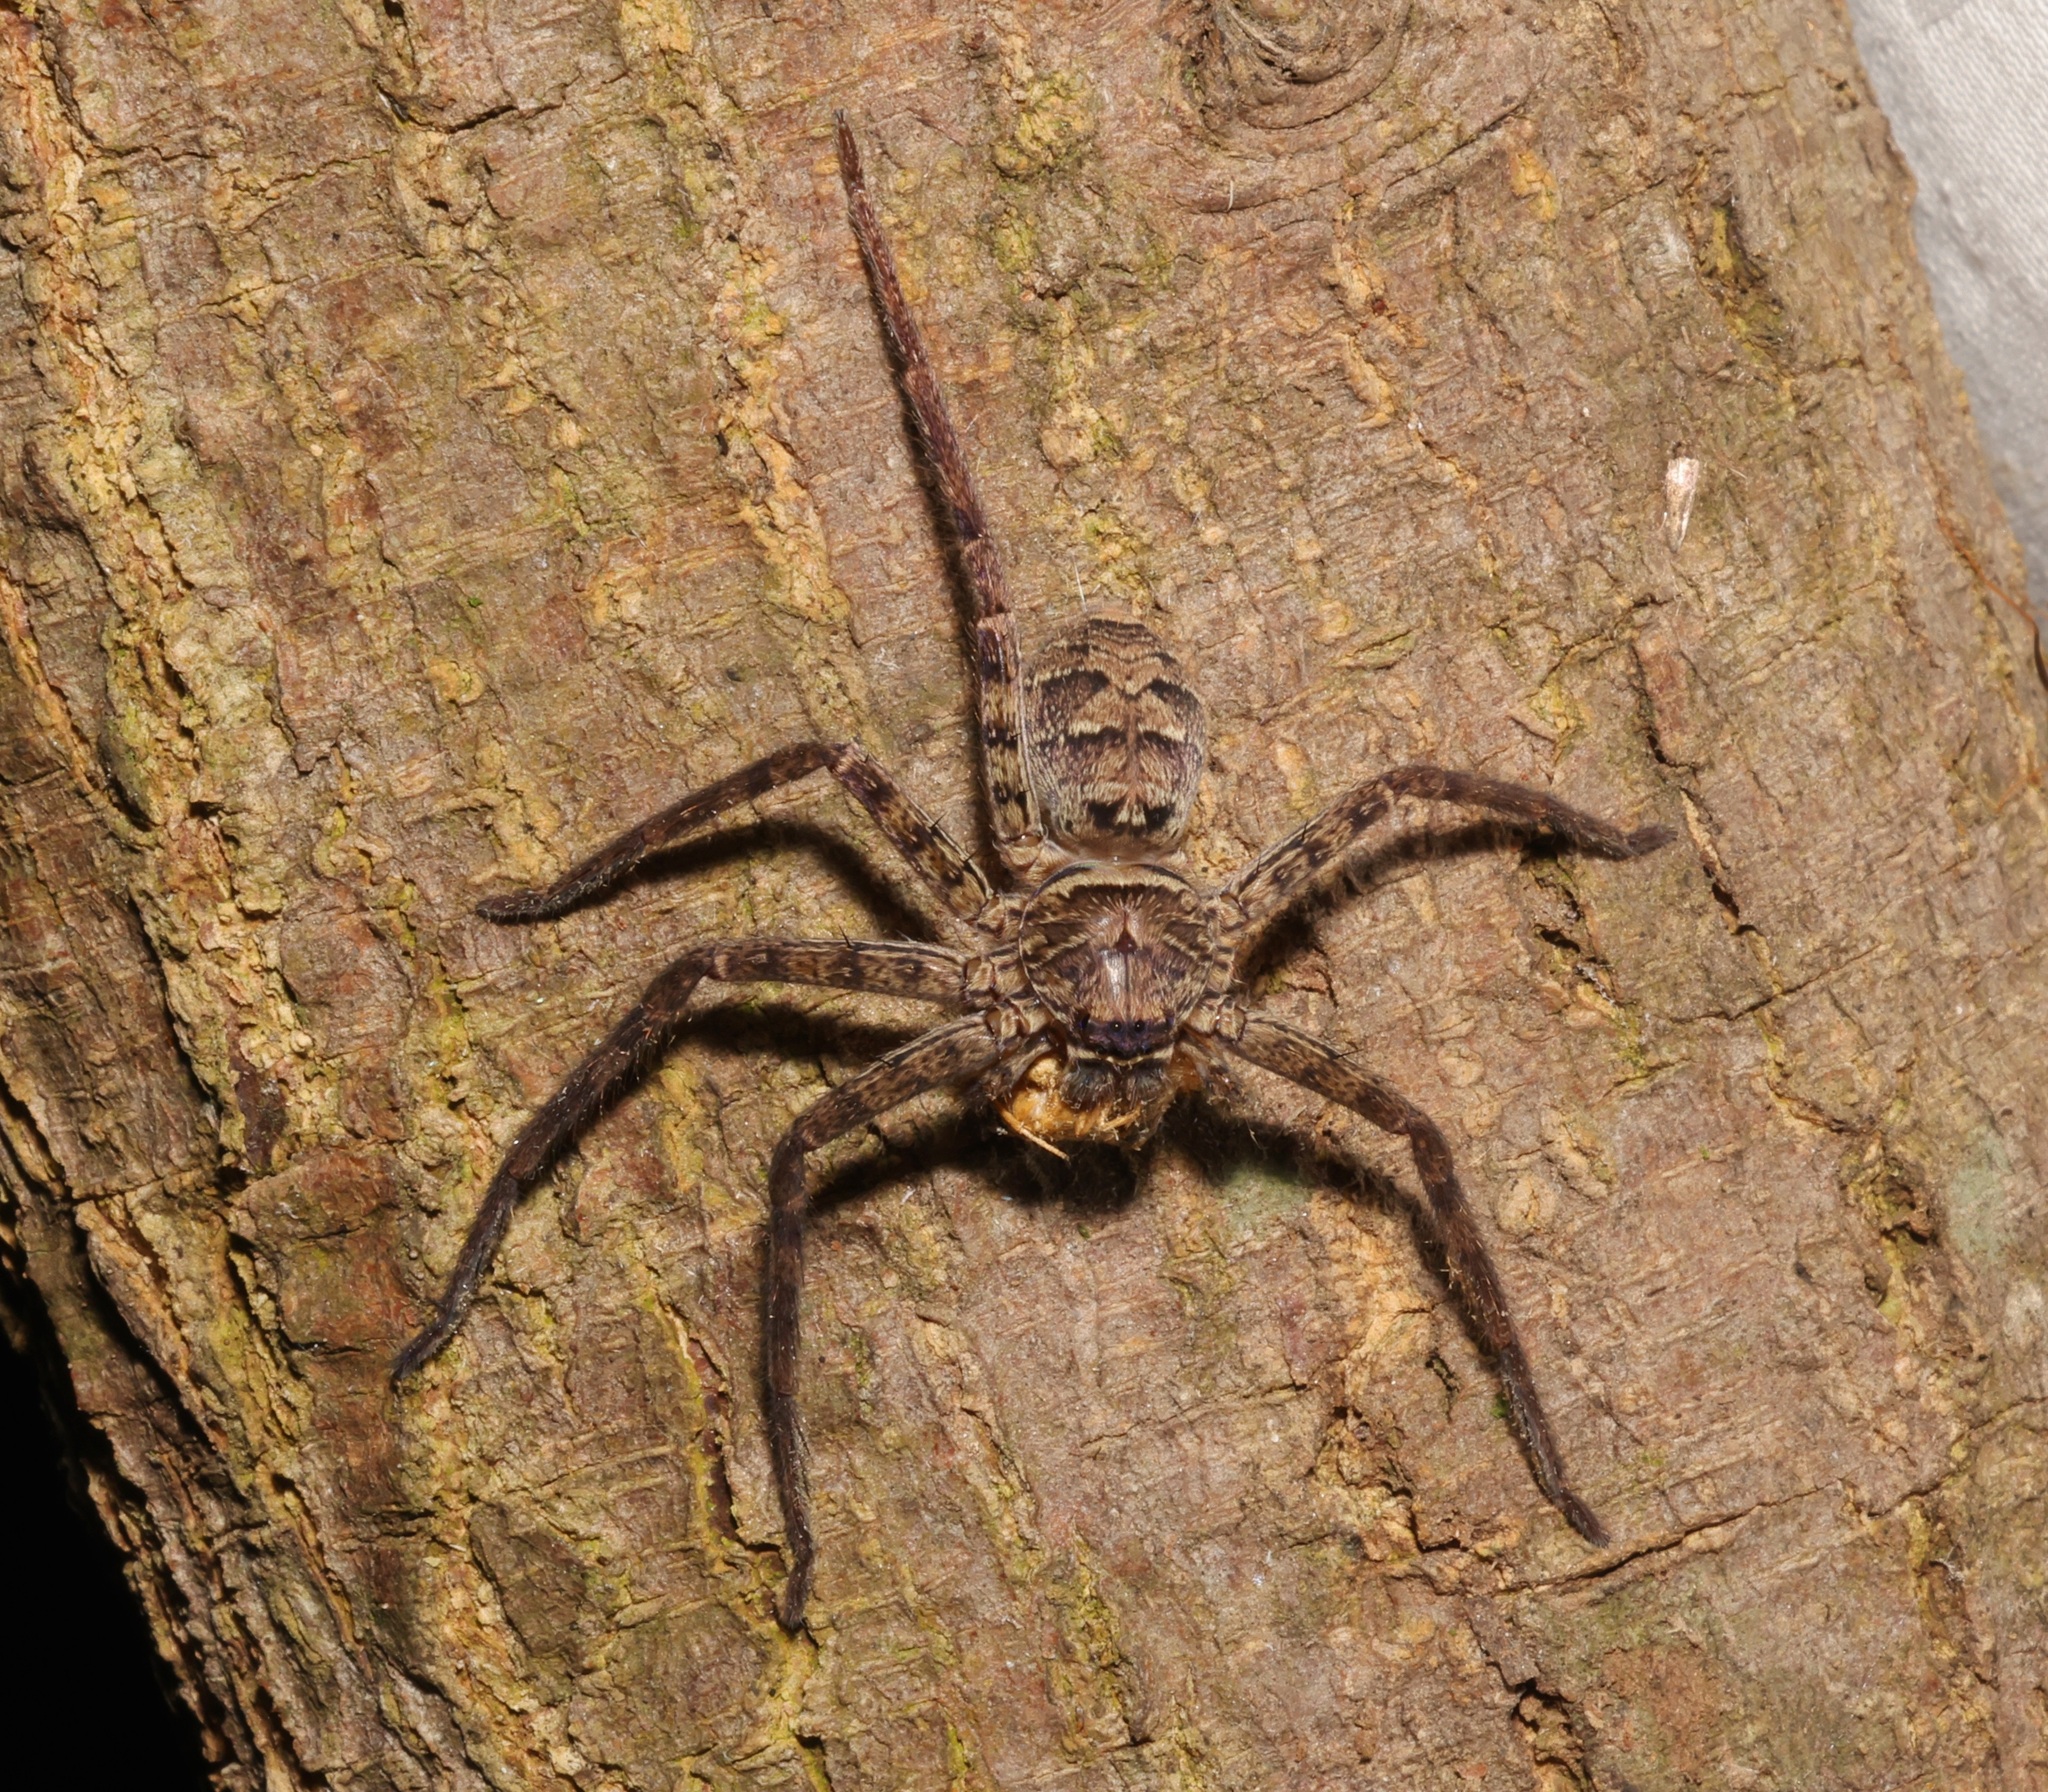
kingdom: Animalia
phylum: Arthropoda
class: Arachnida
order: Araneae
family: Sparassidae
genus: Heteropoda
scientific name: Heteropoda venatoria
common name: Huntsman spider
